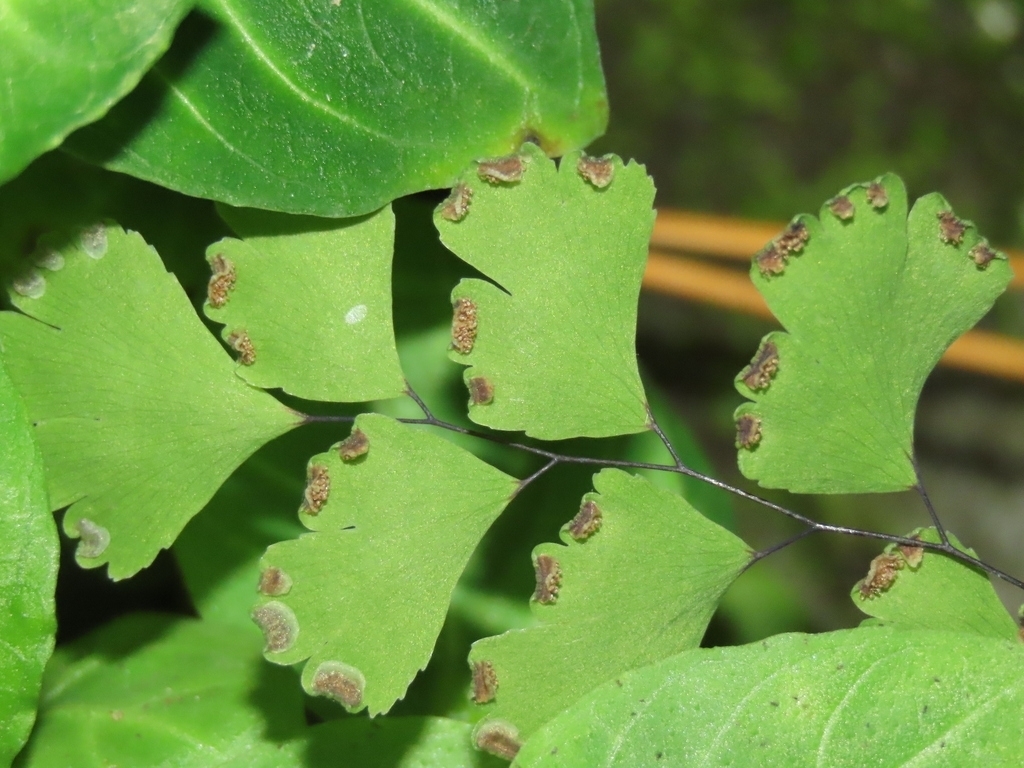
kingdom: Plantae
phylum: Tracheophyta
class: Polypodiopsida
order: Polypodiales
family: Pteridaceae
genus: Adiantum
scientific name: Adiantum capillus-veneris
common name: Maidenhair fern
